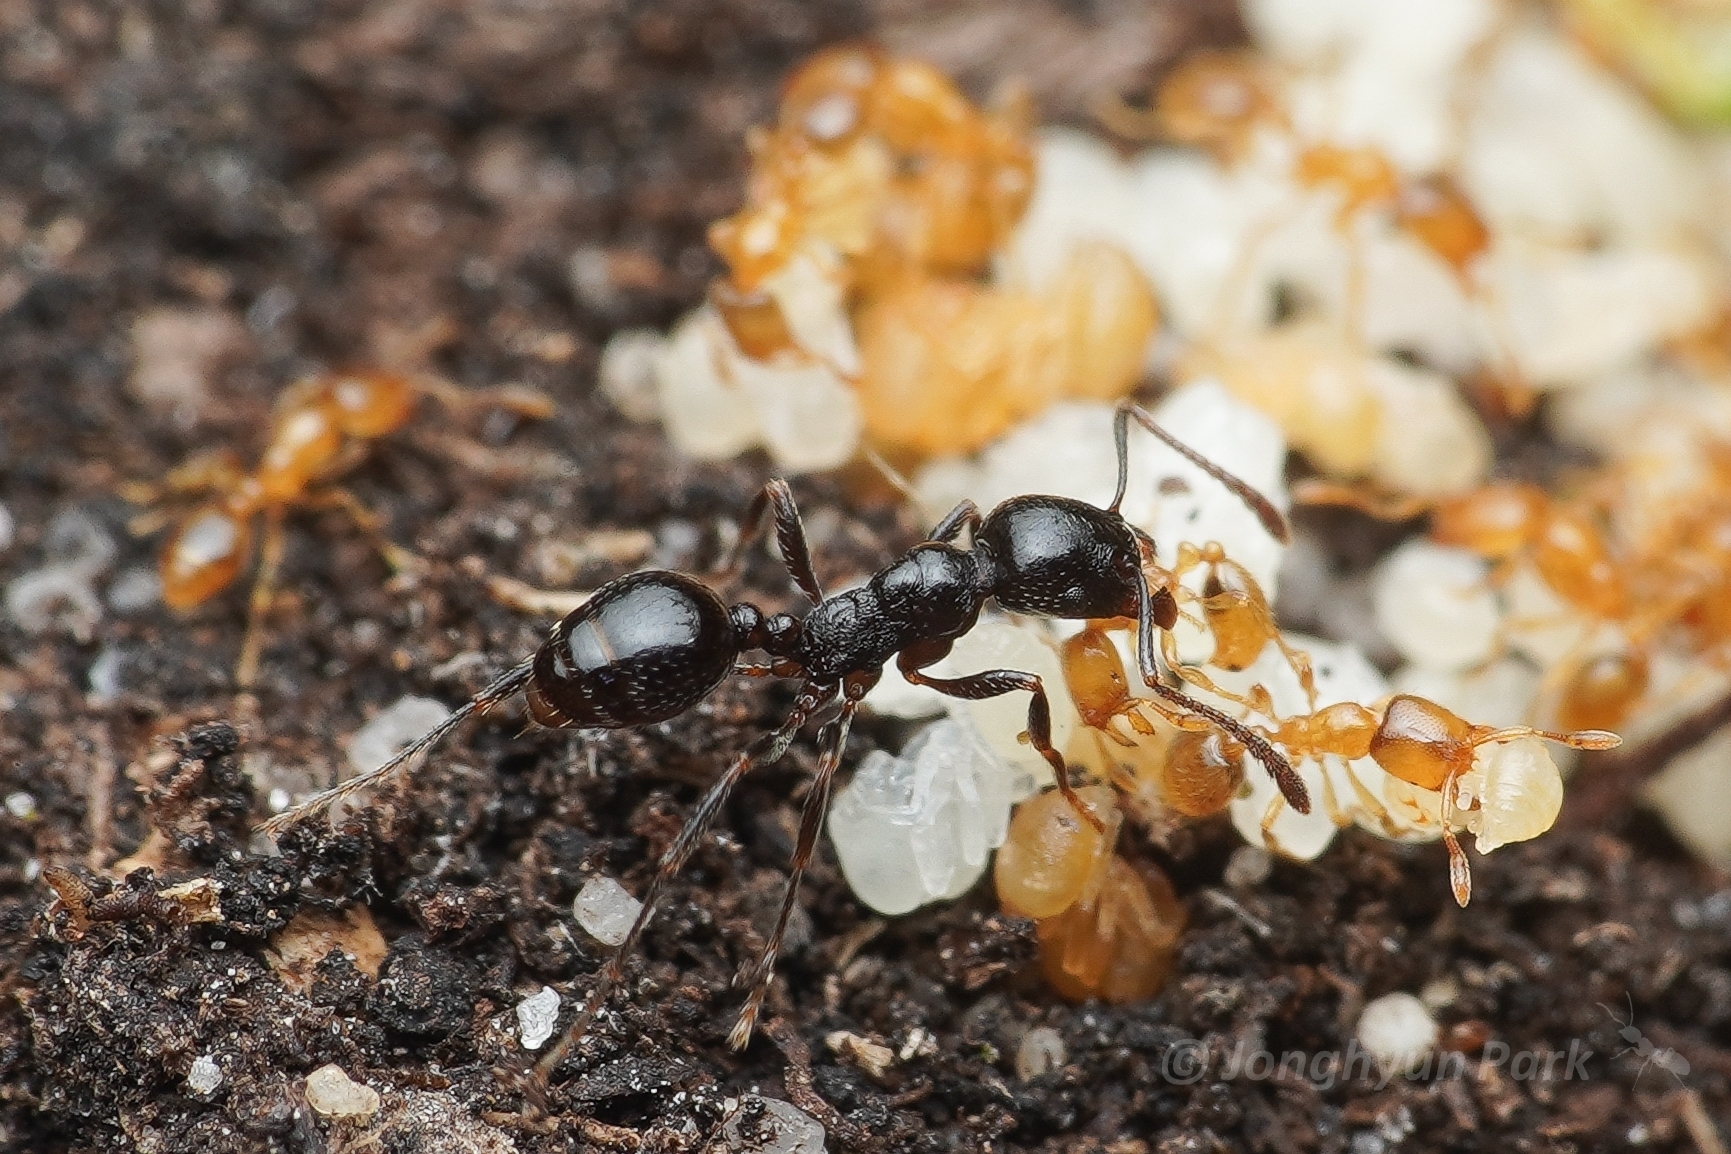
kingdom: Animalia
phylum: Arthropoda
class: Insecta
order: Hymenoptera
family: Formicidae
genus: Solenopsis
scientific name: Solenopsis punctaticeps
